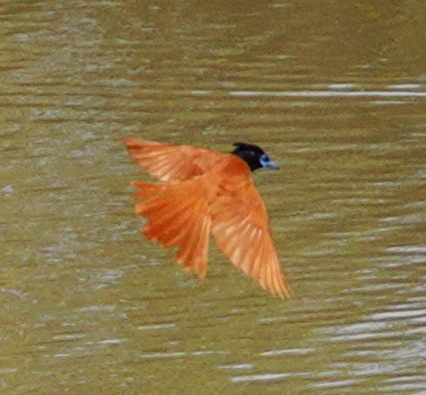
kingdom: Animalia
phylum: Chordata
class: Aves
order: Passeriformes
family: Monarchidae
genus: Terpsiphone
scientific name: Terpsiphone paradisi
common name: Indian paradise flycatcher
